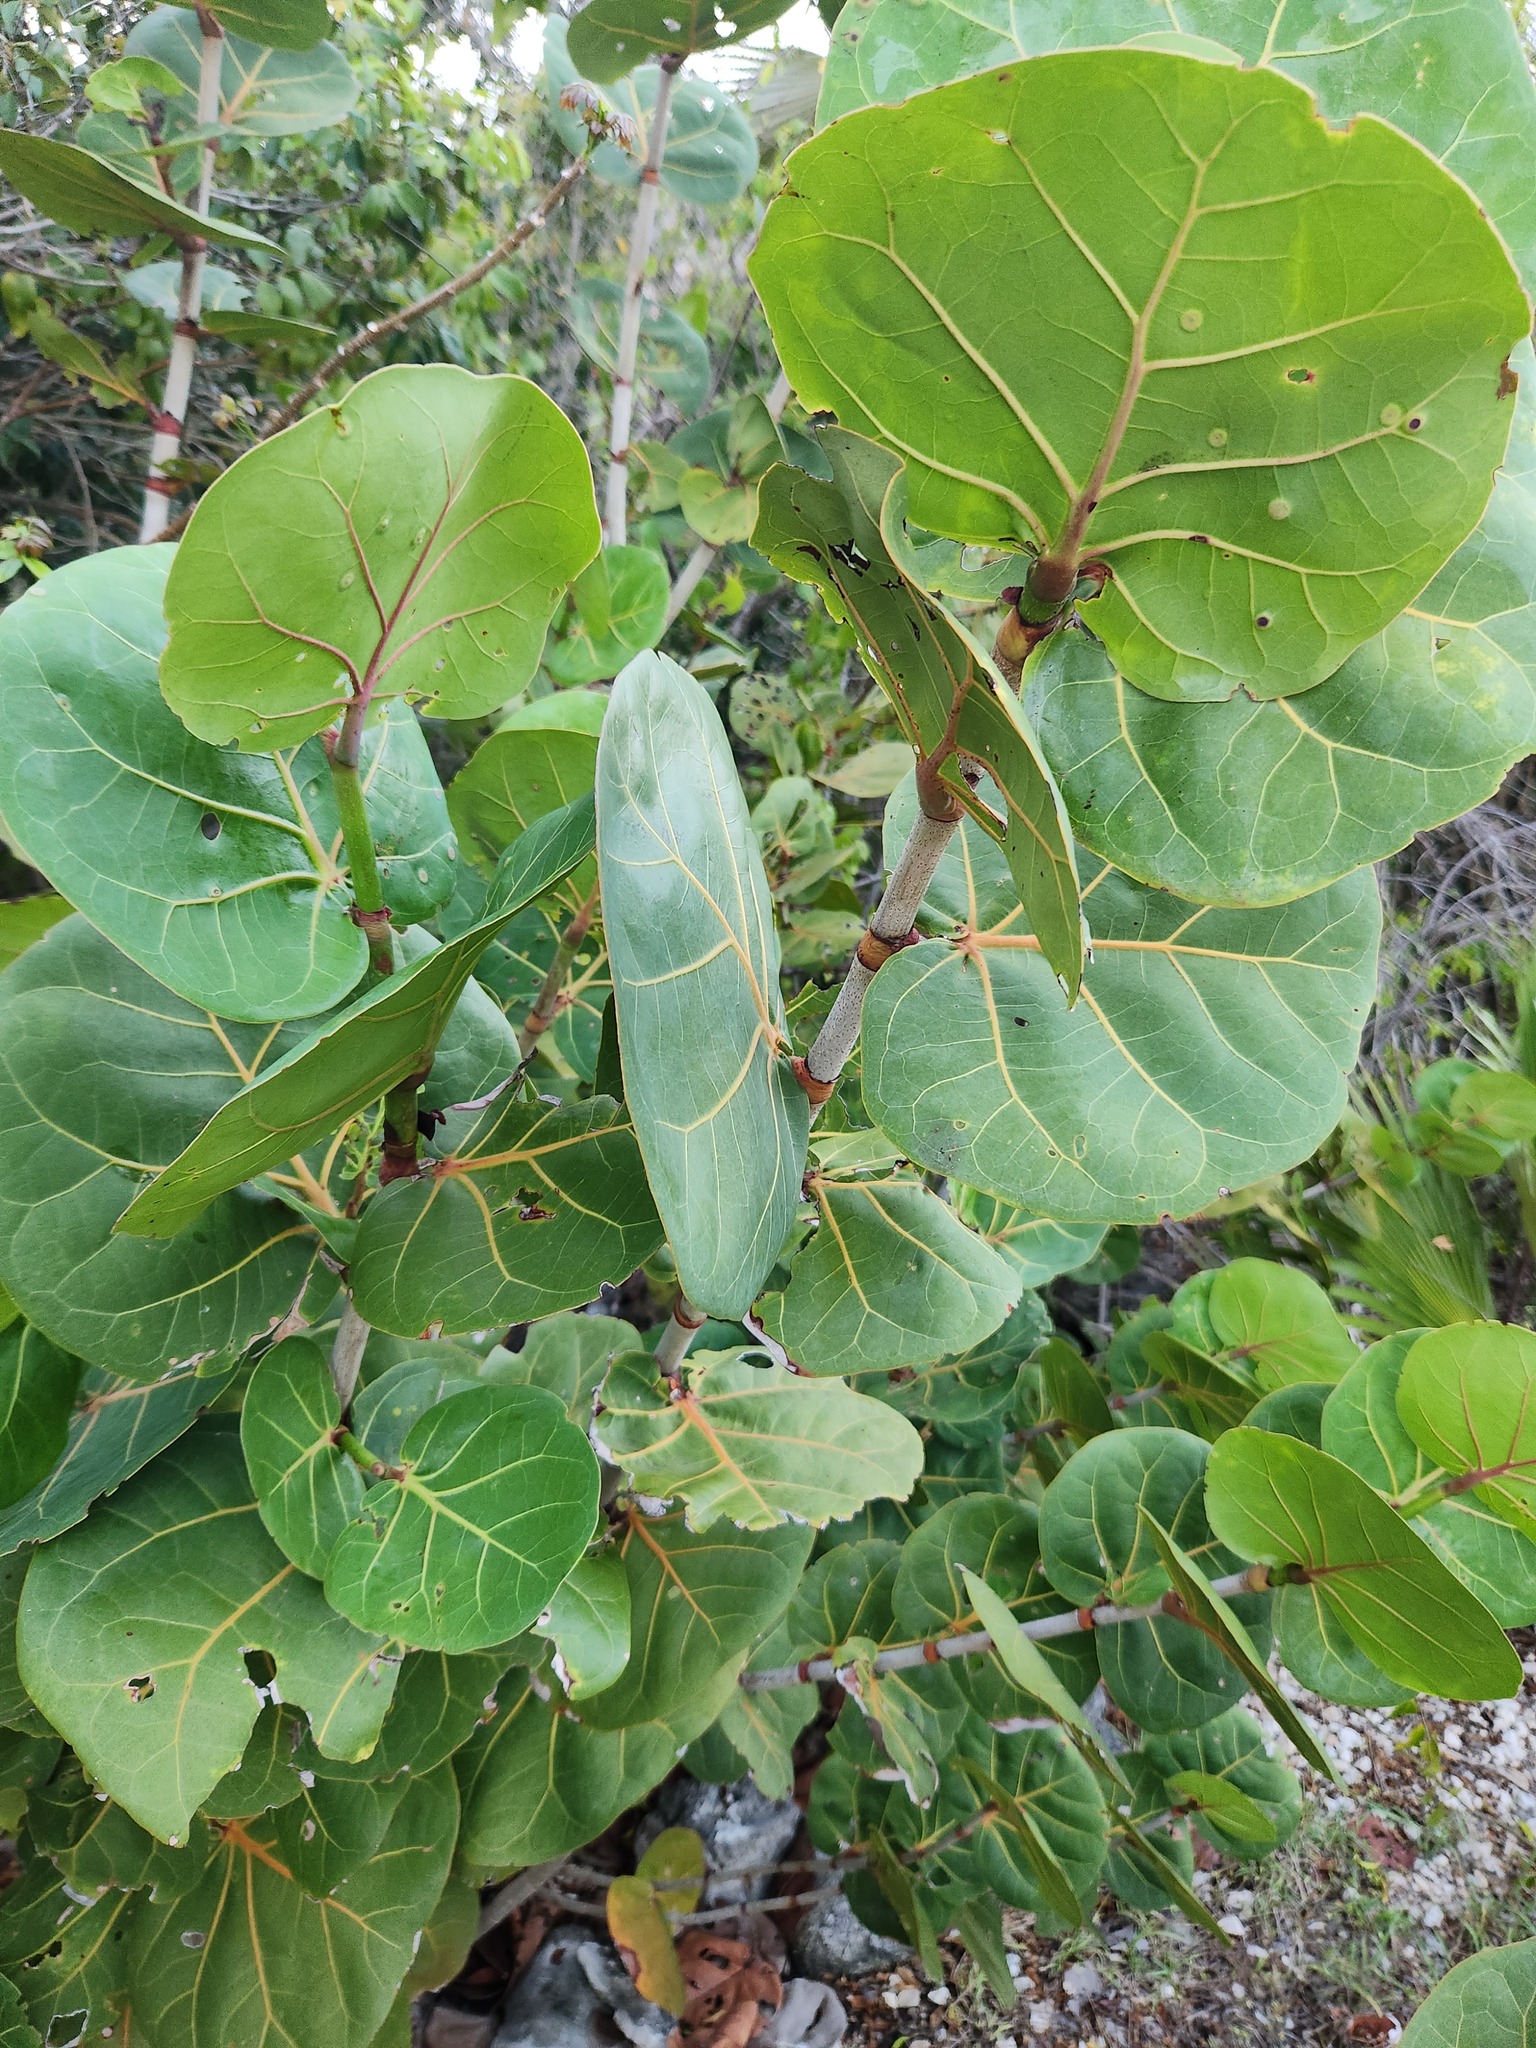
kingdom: Plantae
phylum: Tracheophyta
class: Magnoliopsida
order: Caryophyllales
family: Polygonaceae
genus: Coccoloba
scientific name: Coccoloba uvifera
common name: Seagrape
